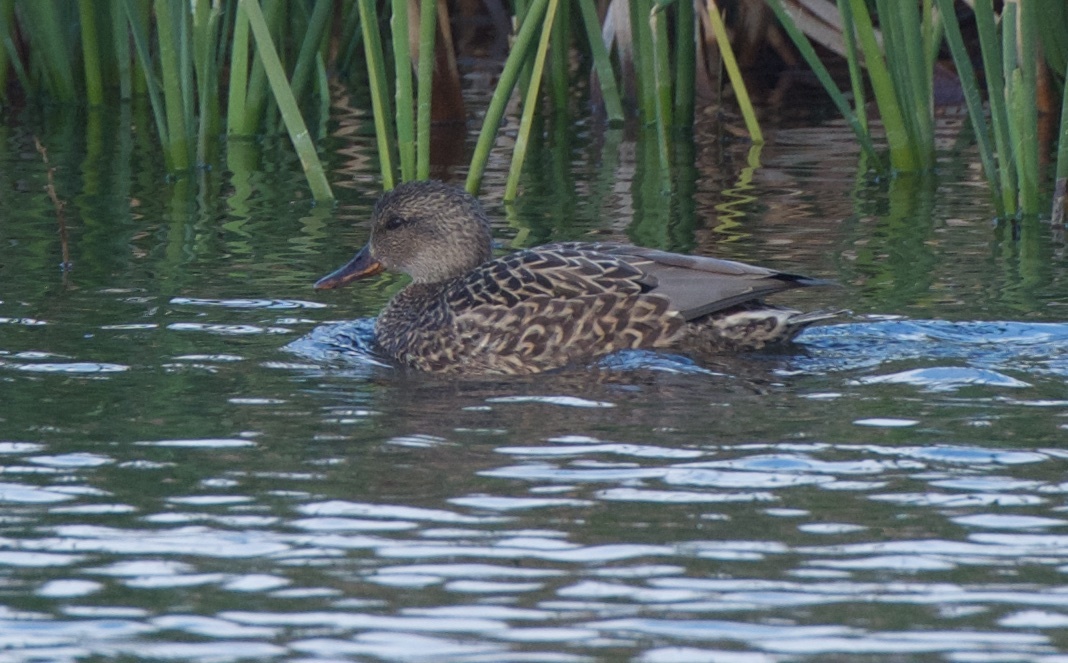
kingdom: Animalia
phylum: Chordata
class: Aves
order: Anseriformes
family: Anatidae
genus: Mareca
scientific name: Mareca strepera
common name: Gadwall
